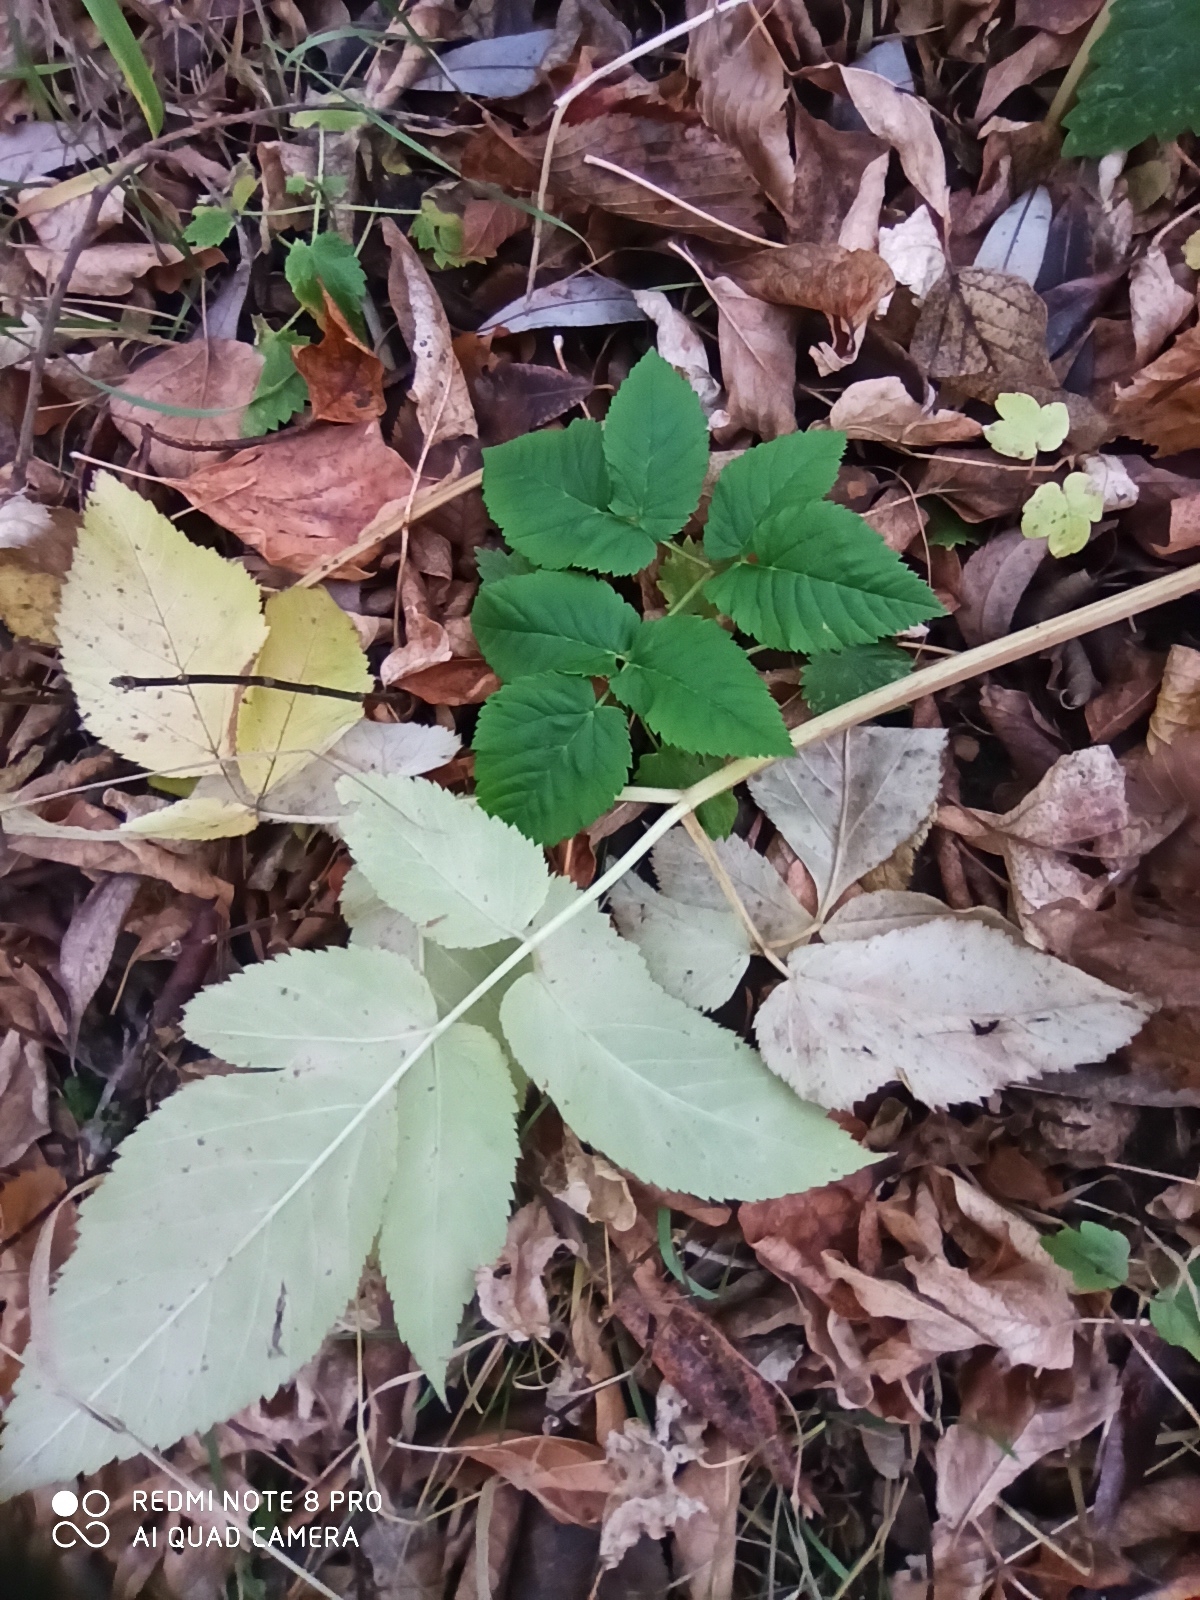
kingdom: Plantae
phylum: Tracheophyta
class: Magnoliopsida
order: Apiales
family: Apiaceae
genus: Aegopodium
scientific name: Aegopodium podagraria
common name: Ground-elder
